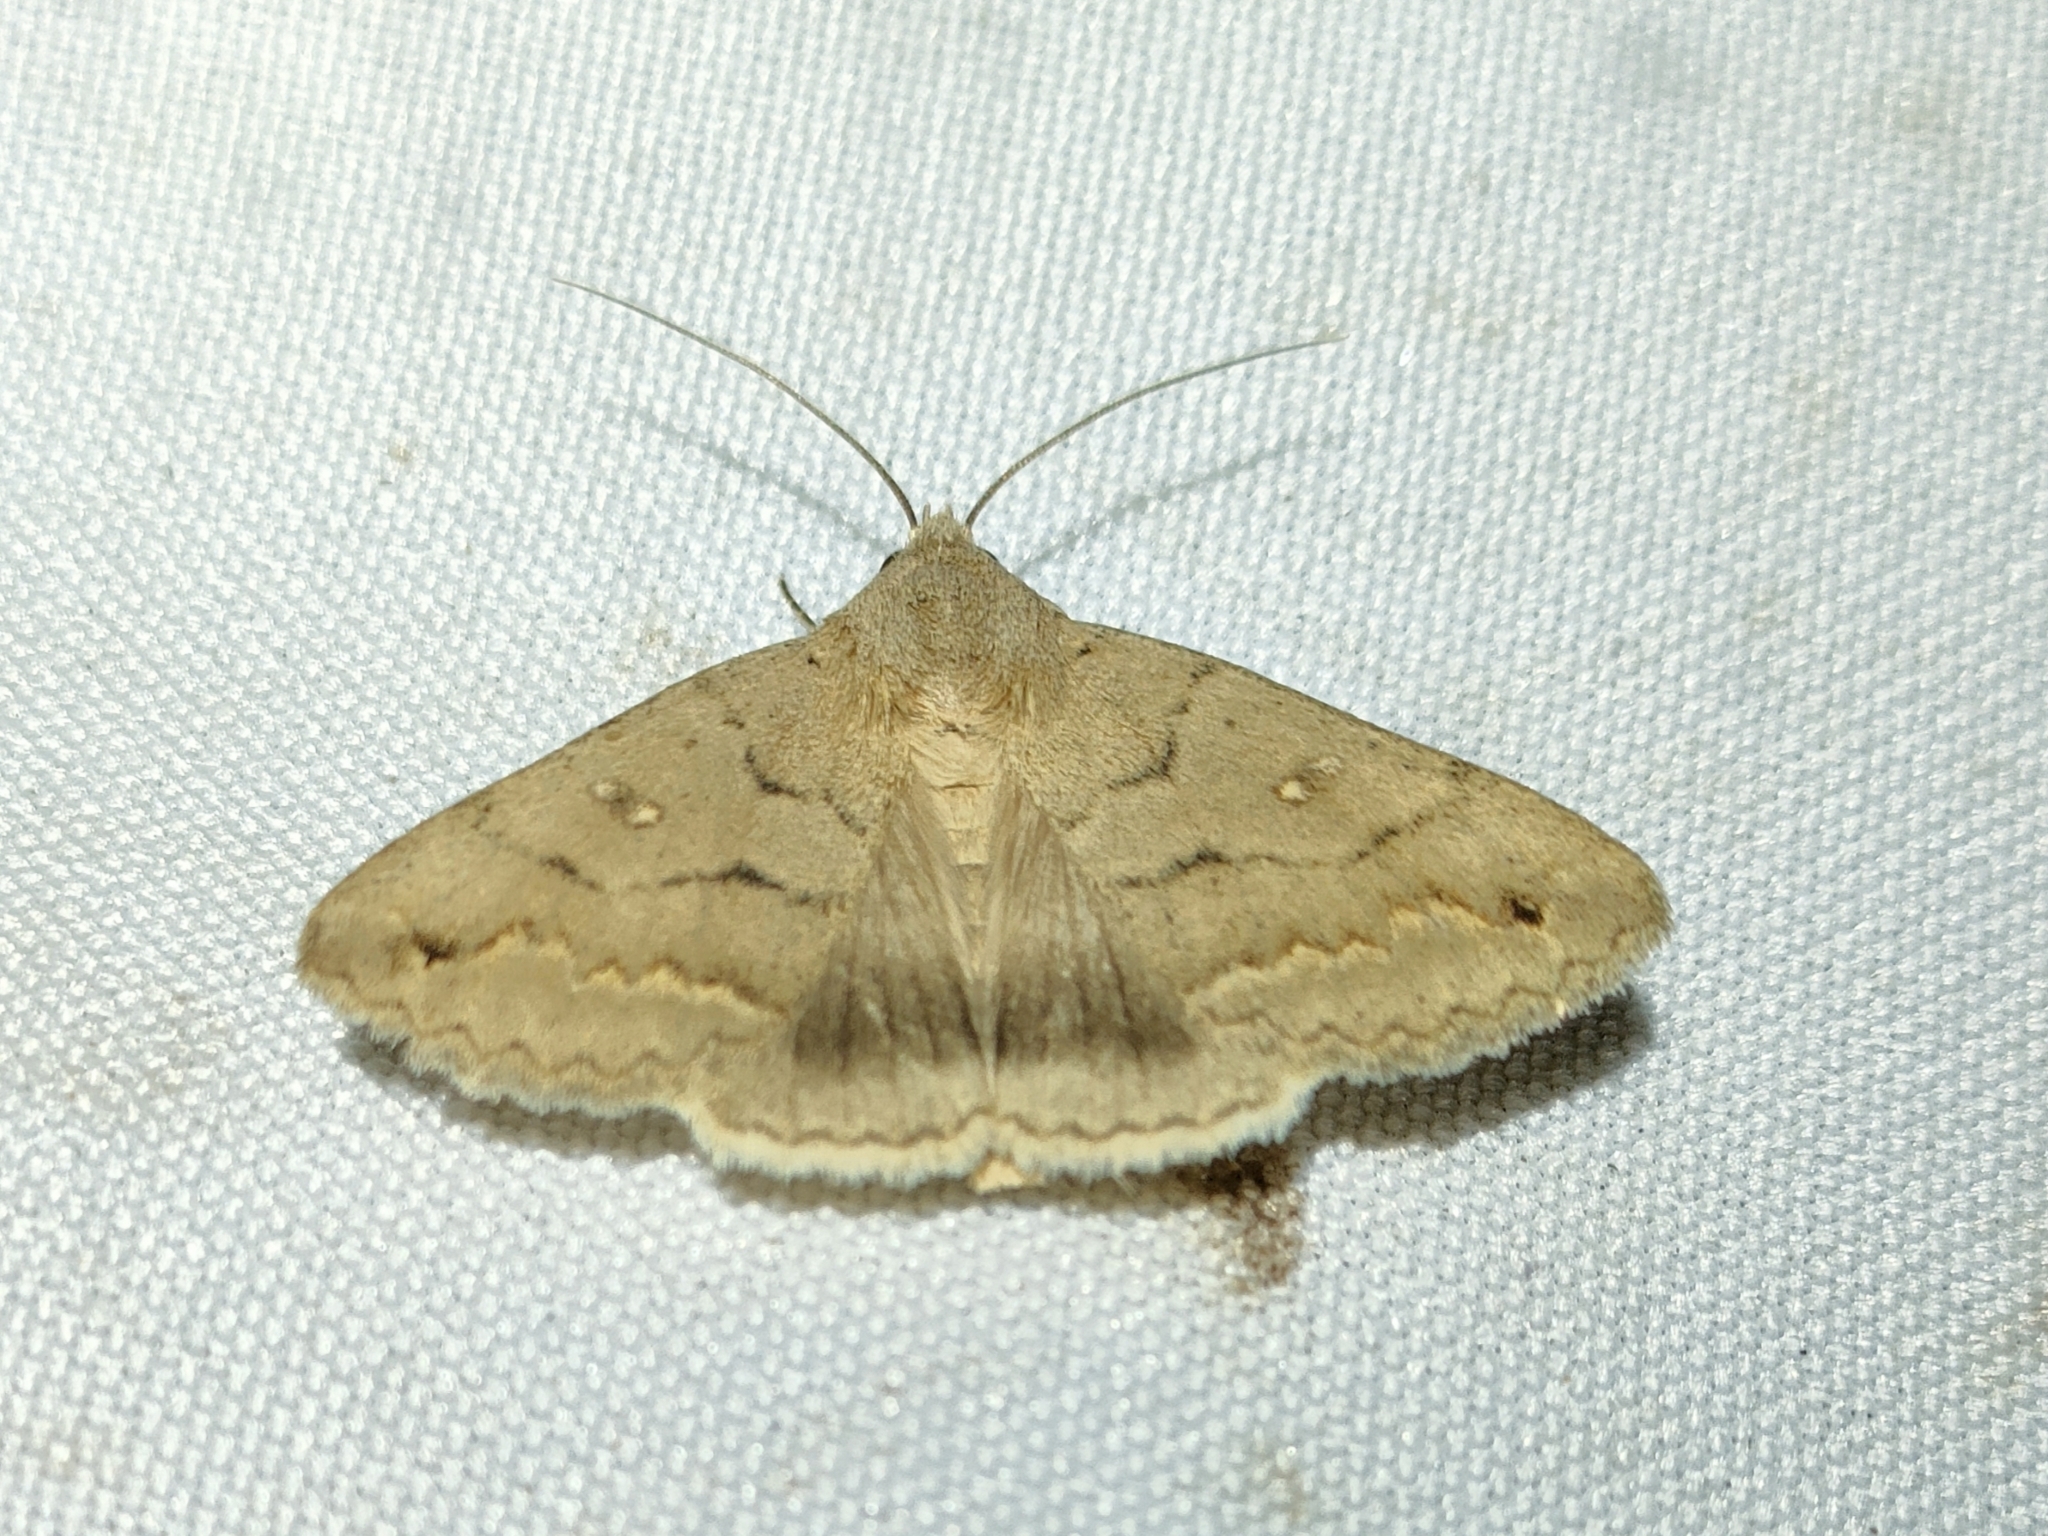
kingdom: Animalia
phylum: Arthropoda
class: Insecta
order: Lepidoptera
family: Erebidae
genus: Clytie
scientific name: Clytie illunaris
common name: Trent double-stripe
